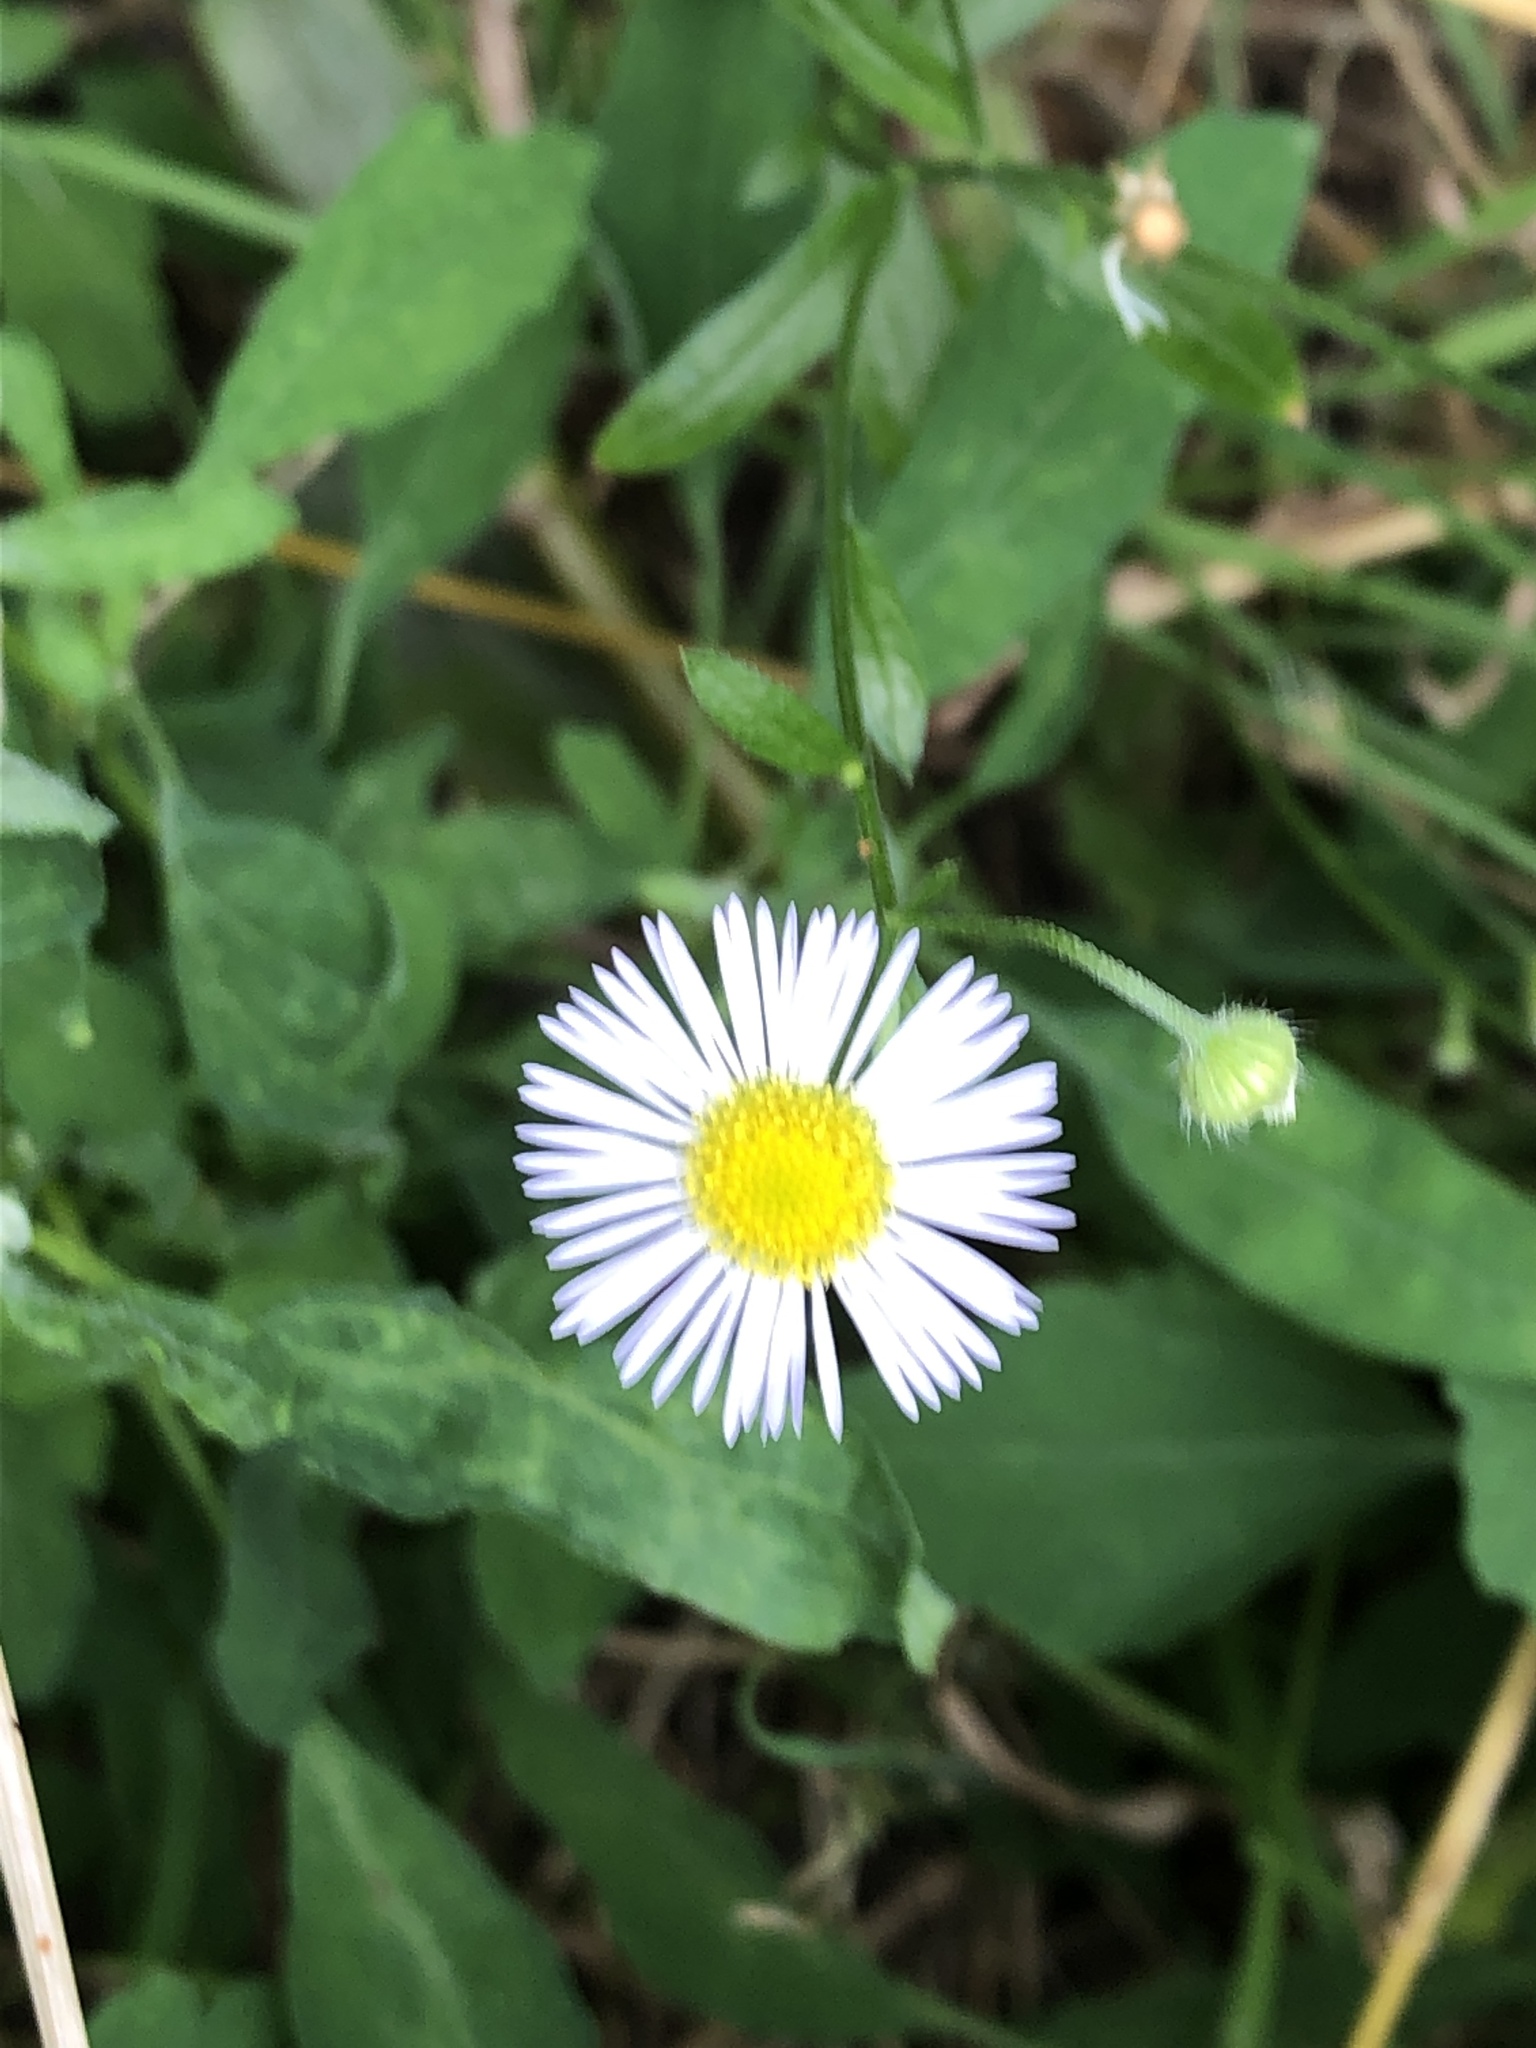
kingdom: Plantae
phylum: Tracheophyta
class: Magnoliopsida
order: Asterales
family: Asteraceae
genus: Erigeron
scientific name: Erigeron annuus
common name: Tall fleabane
